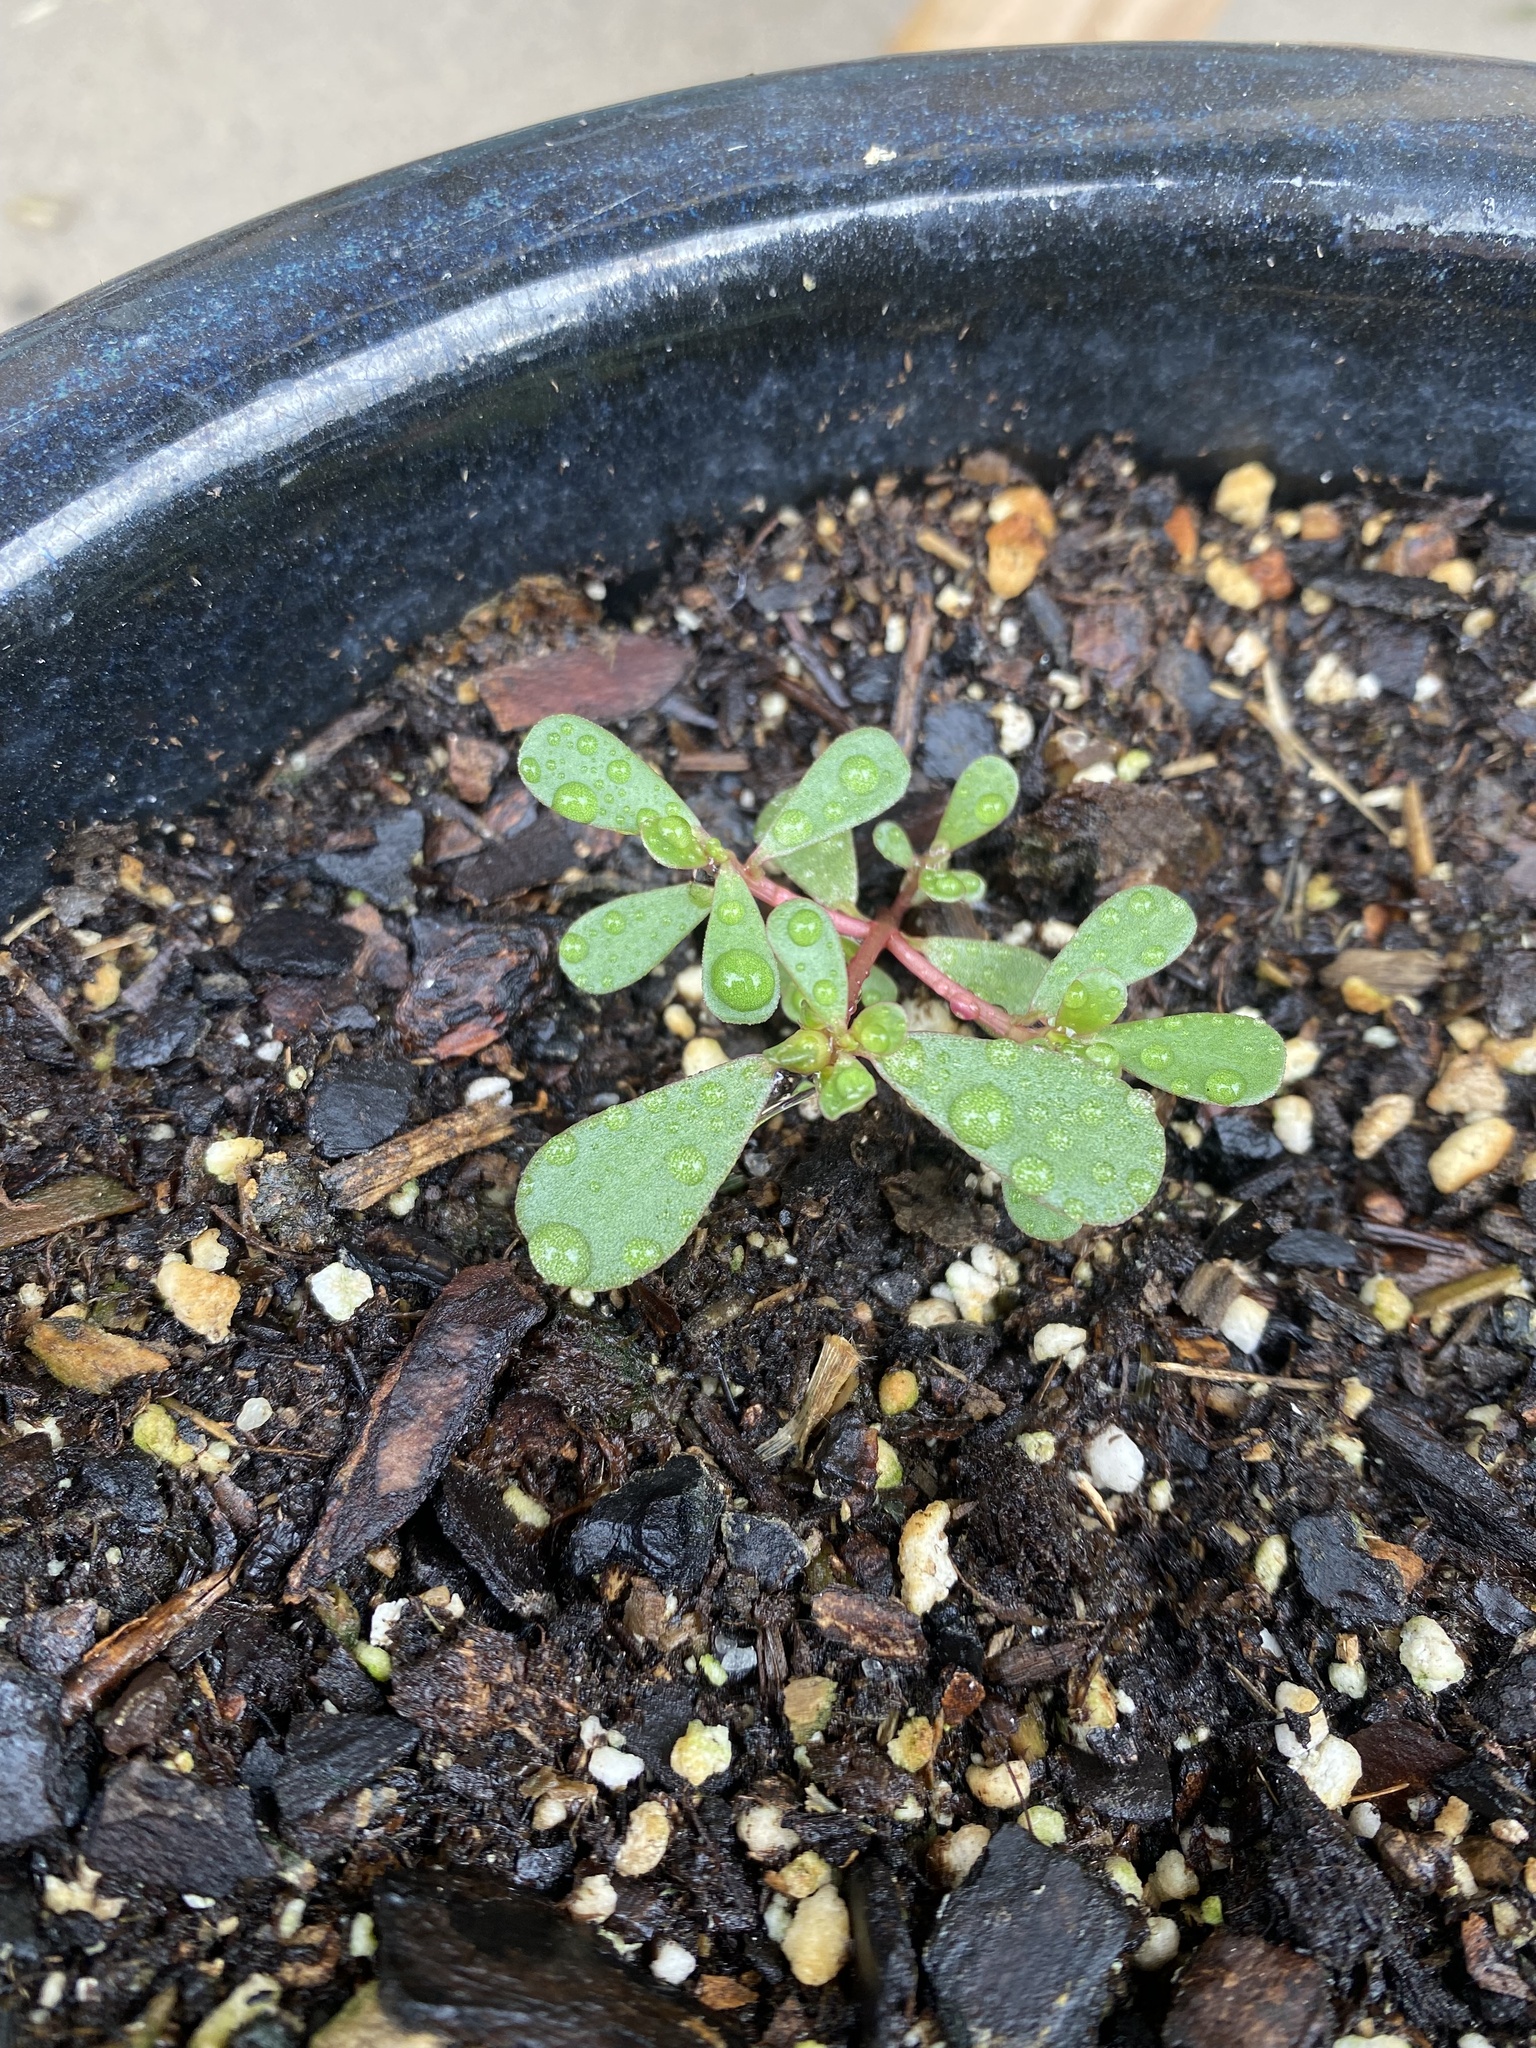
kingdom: Plantae
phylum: Tracheophyta
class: Magnoliopsida
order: Caryophyllales
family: Portulacaceae
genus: Portulaca
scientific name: Portulaca oleracea
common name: Common purslane
